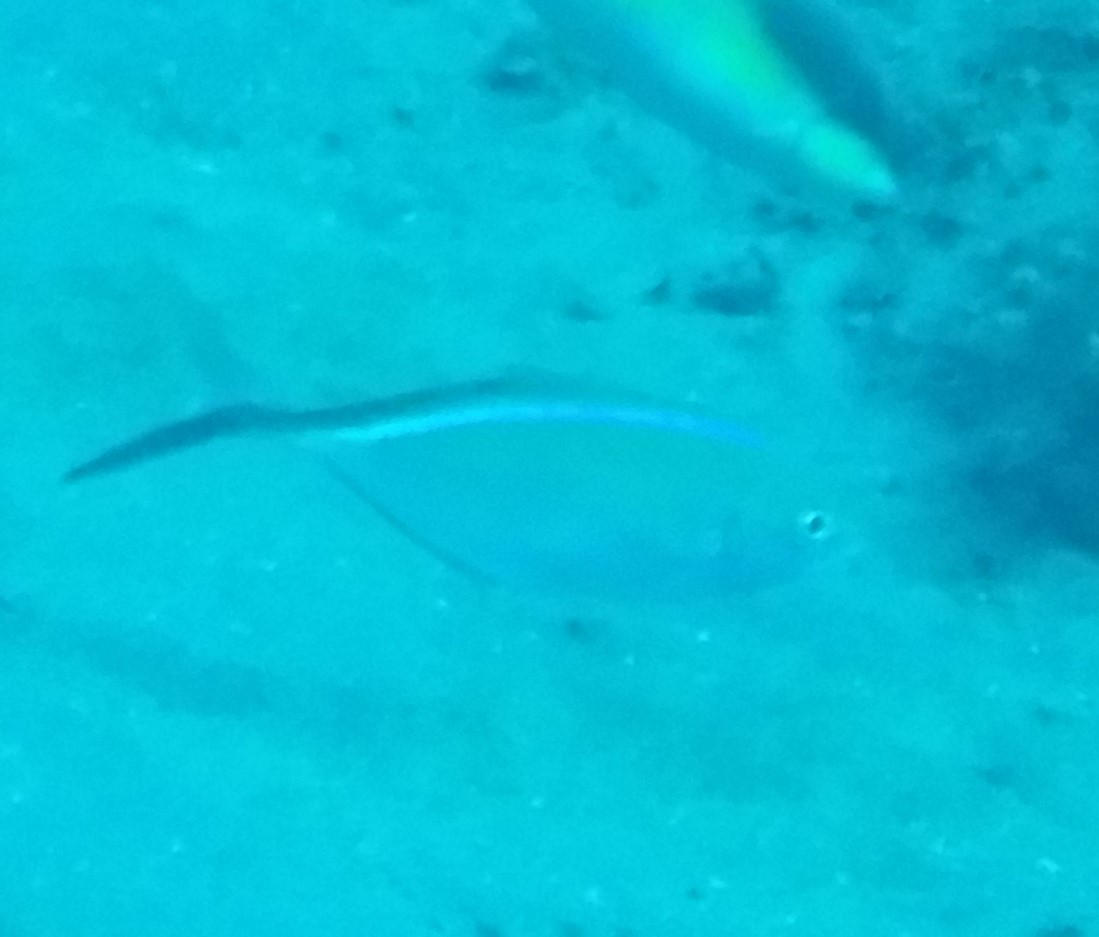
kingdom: Animalia
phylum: Chordata
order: Perciformes
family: Carangidae
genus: Caranx
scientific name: Caranx ruber
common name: Bar jack
